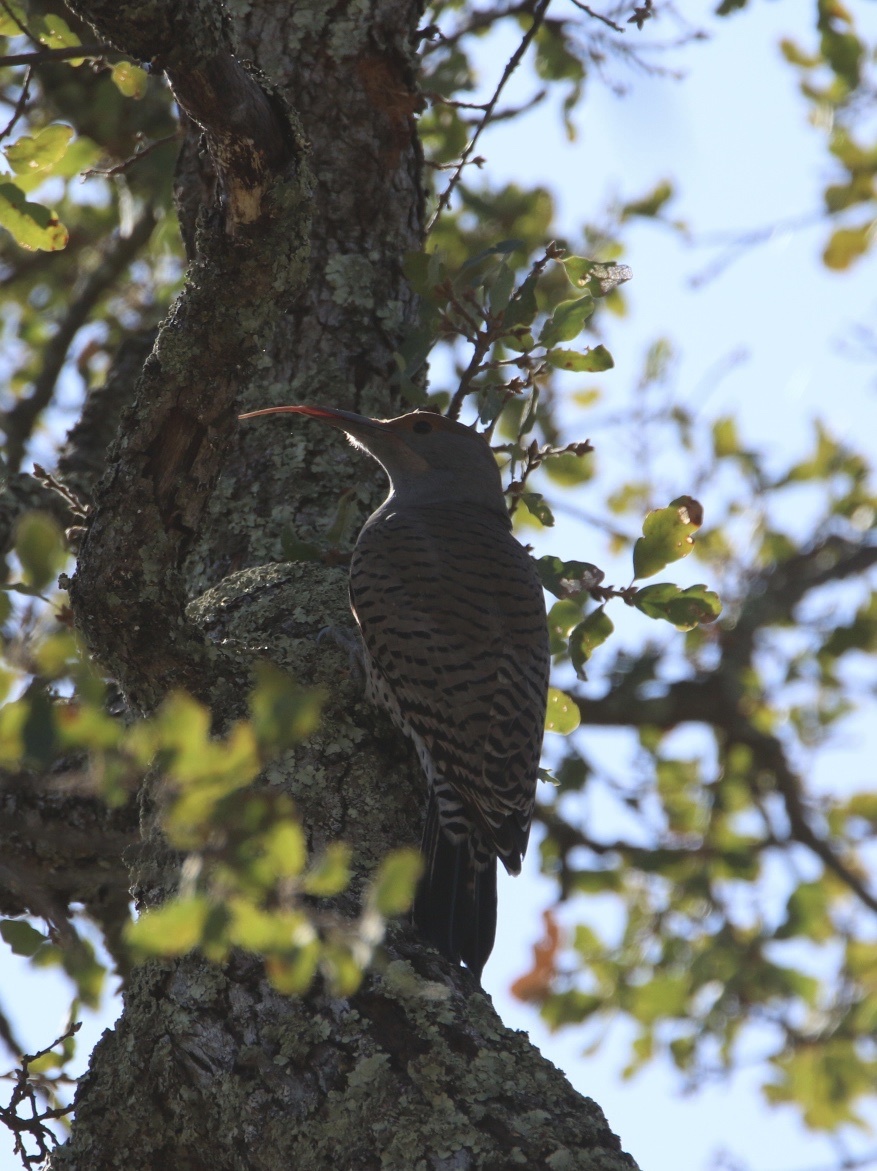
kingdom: Animalia
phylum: Chordata
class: Aves
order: Piciformes
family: Picidae
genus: Colaptes
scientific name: Colaptes auratus
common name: Northern flicker
